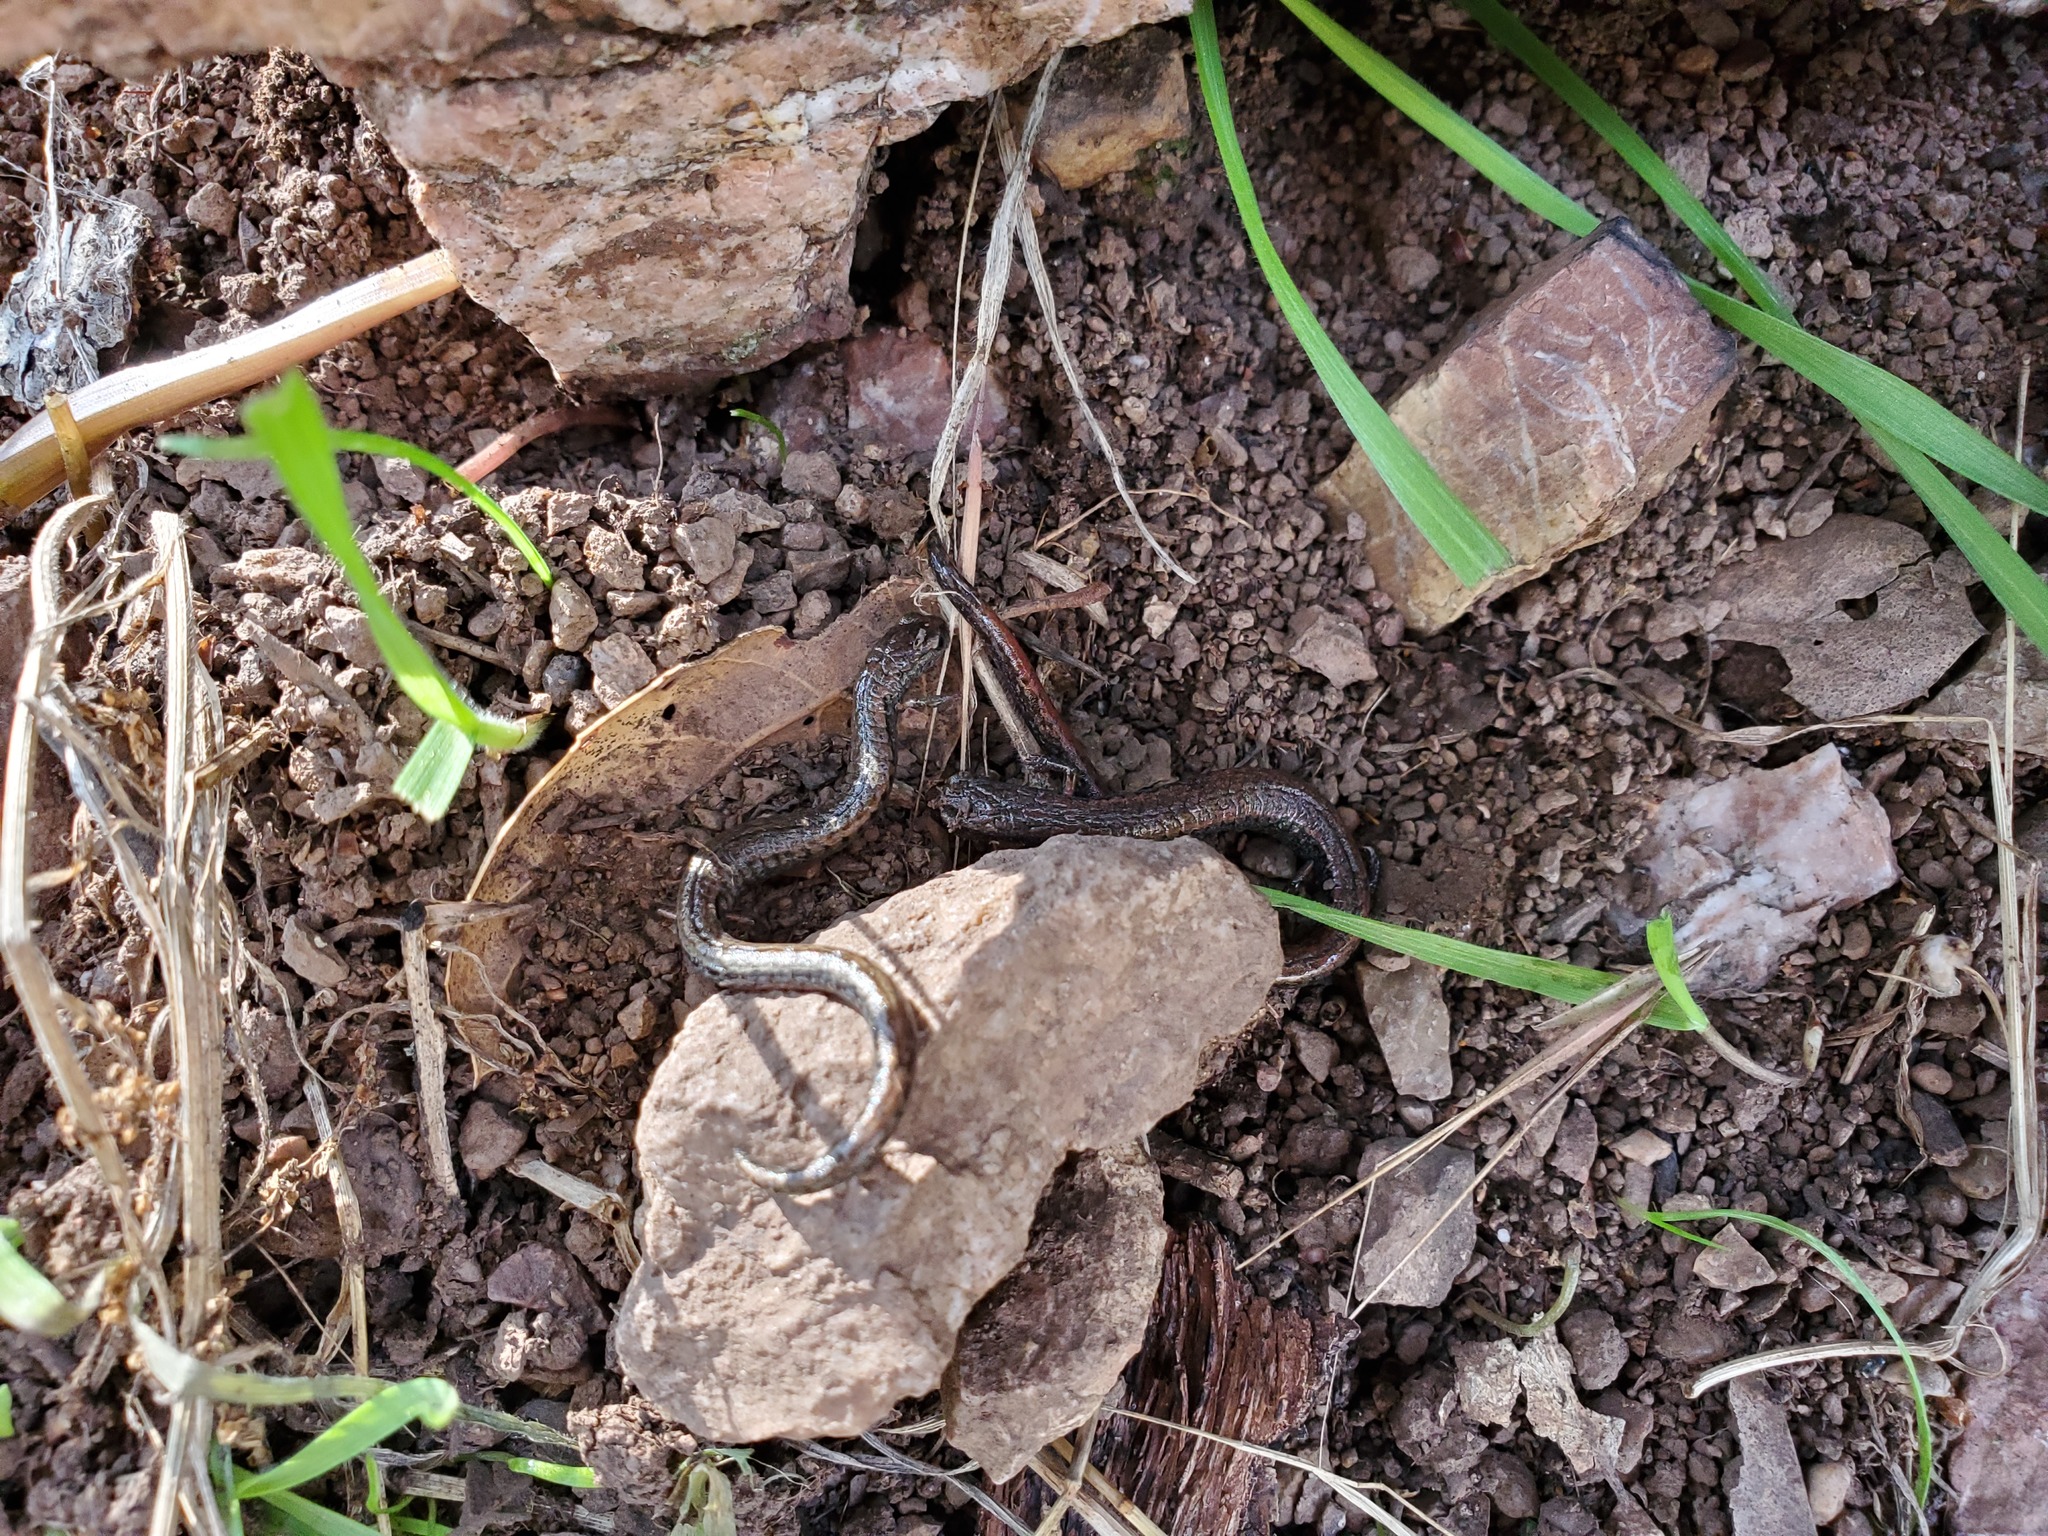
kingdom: Animalia
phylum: Chordata
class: Amphibia
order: Caudata
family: Plethodontidae
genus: Batrachoseps
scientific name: Batrachoseps attenuatus
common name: California slender salamander
